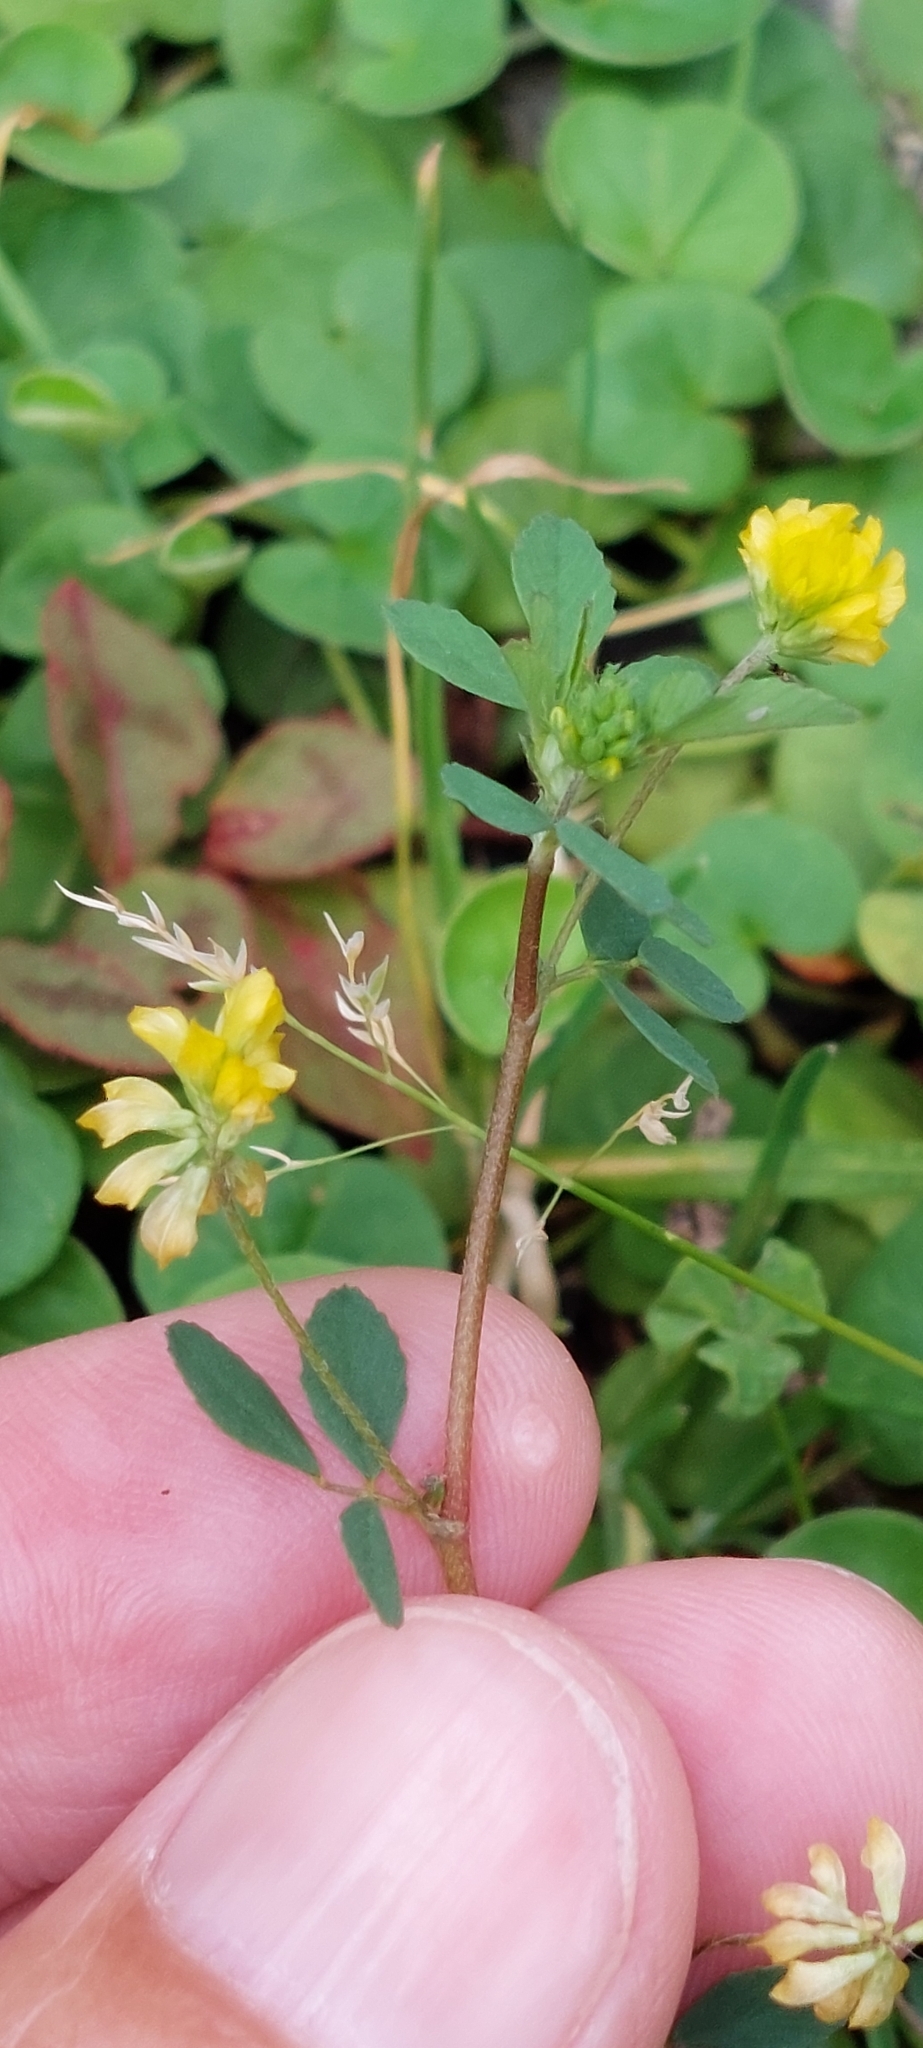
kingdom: Plantae
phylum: Tracheophyta
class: Magnoliopsida
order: Fabales
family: Fabaceae
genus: Trifolium
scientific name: Trifolium dubium
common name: Suckling clover
